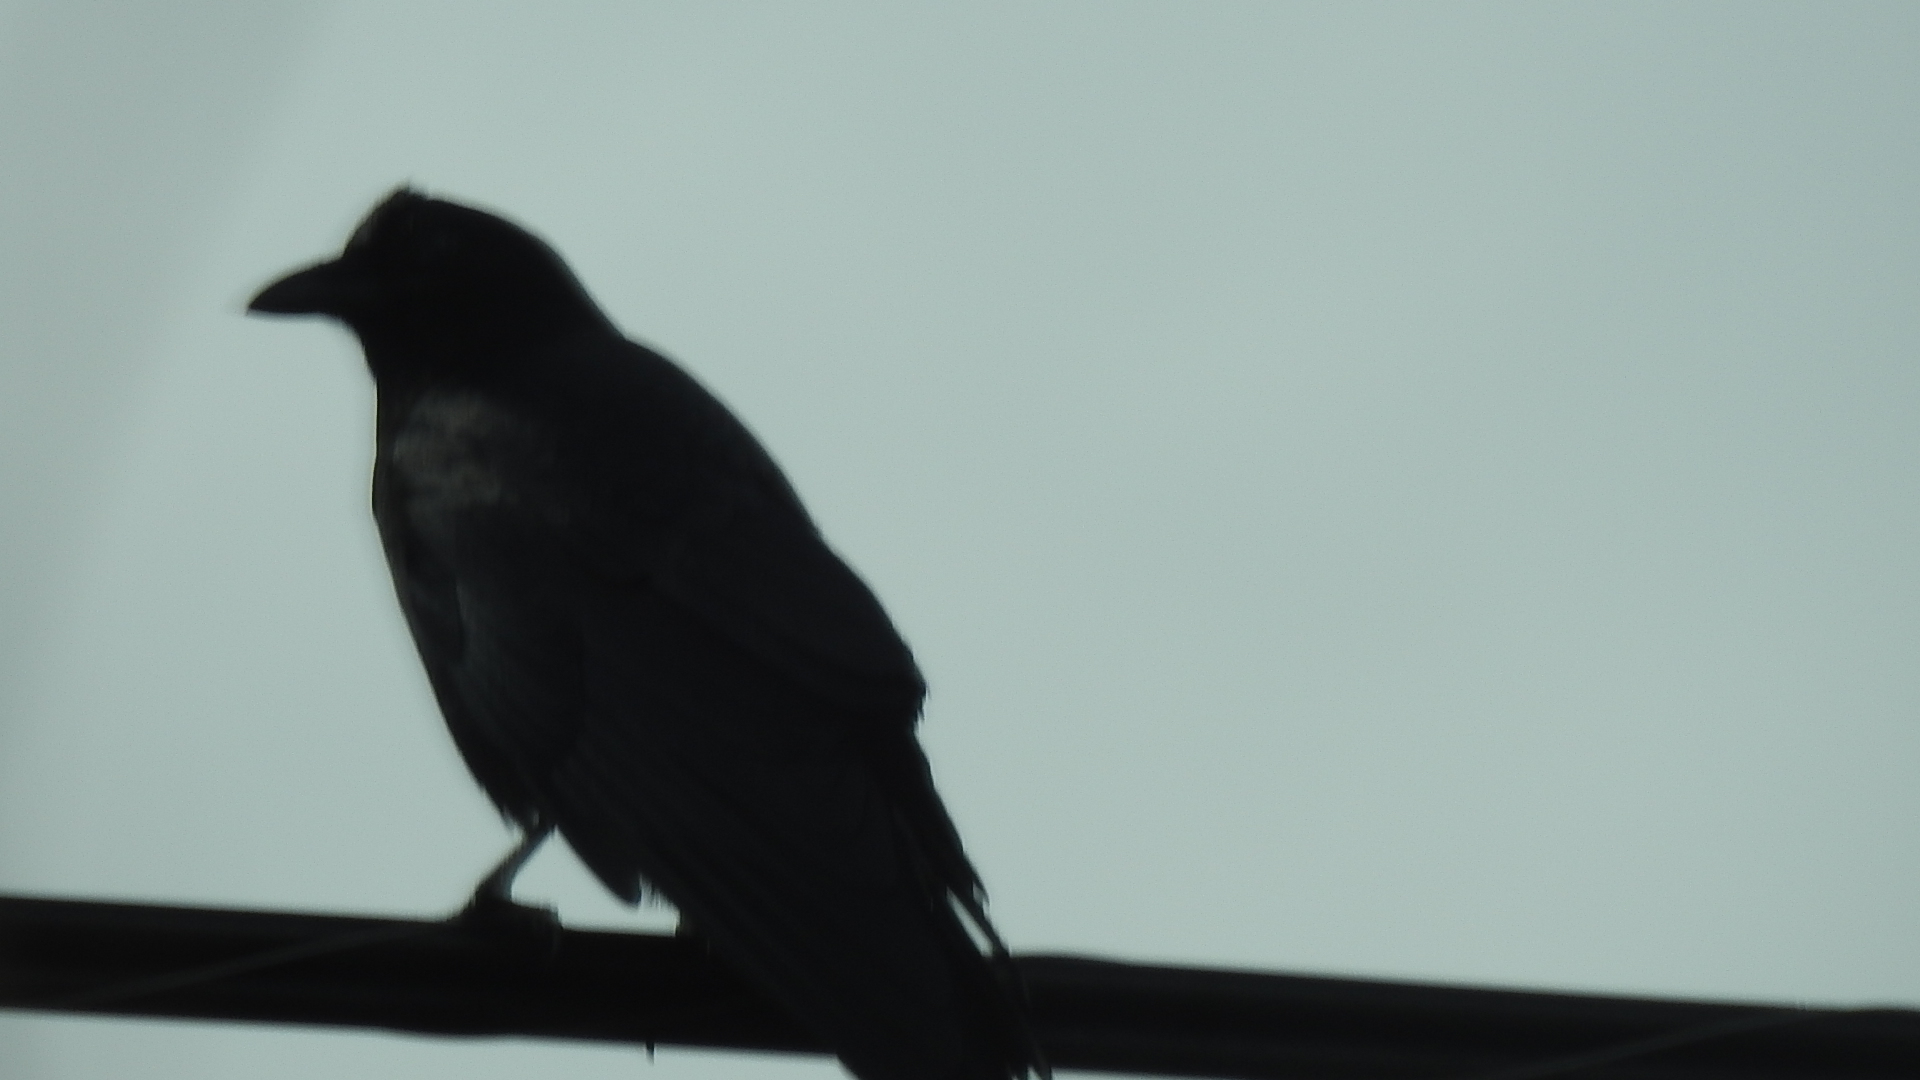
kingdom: Animalia
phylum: Chordata
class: Aves
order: Passeriformes
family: Corvidae
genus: Corvus
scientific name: Corvus brachyrhynchos
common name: American crow
